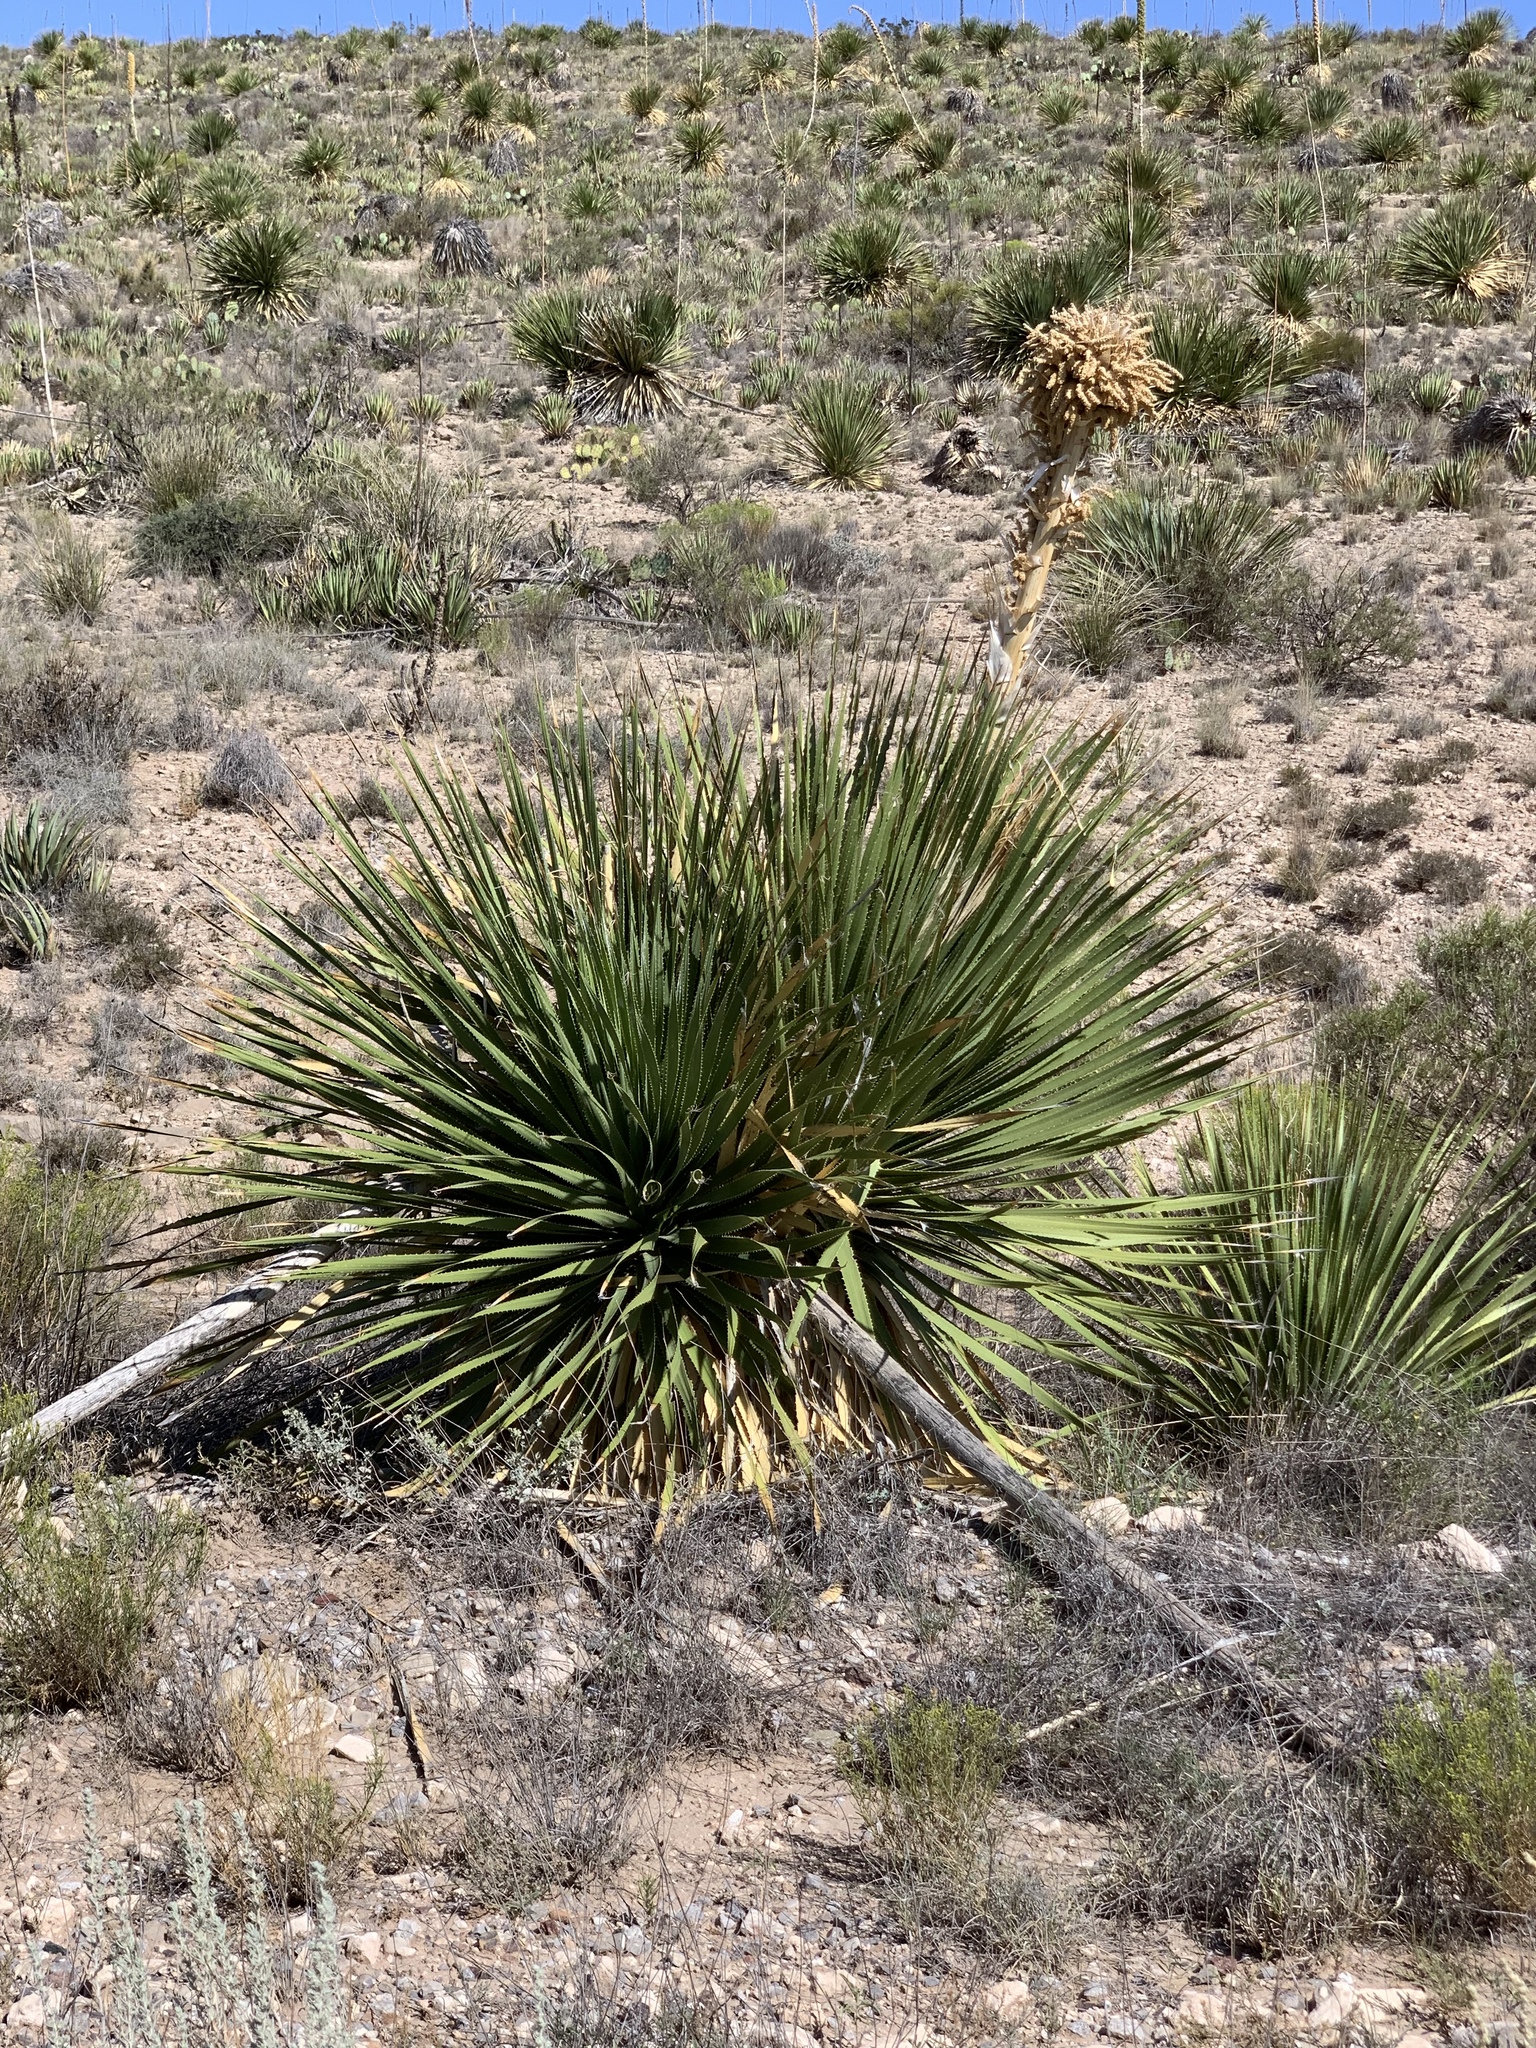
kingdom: Plantae
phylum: Tracheophyta
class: Liliopsida
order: Asparagales
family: Asparagaceae
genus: Dasylirion
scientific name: Dasylirion leiophyllum
